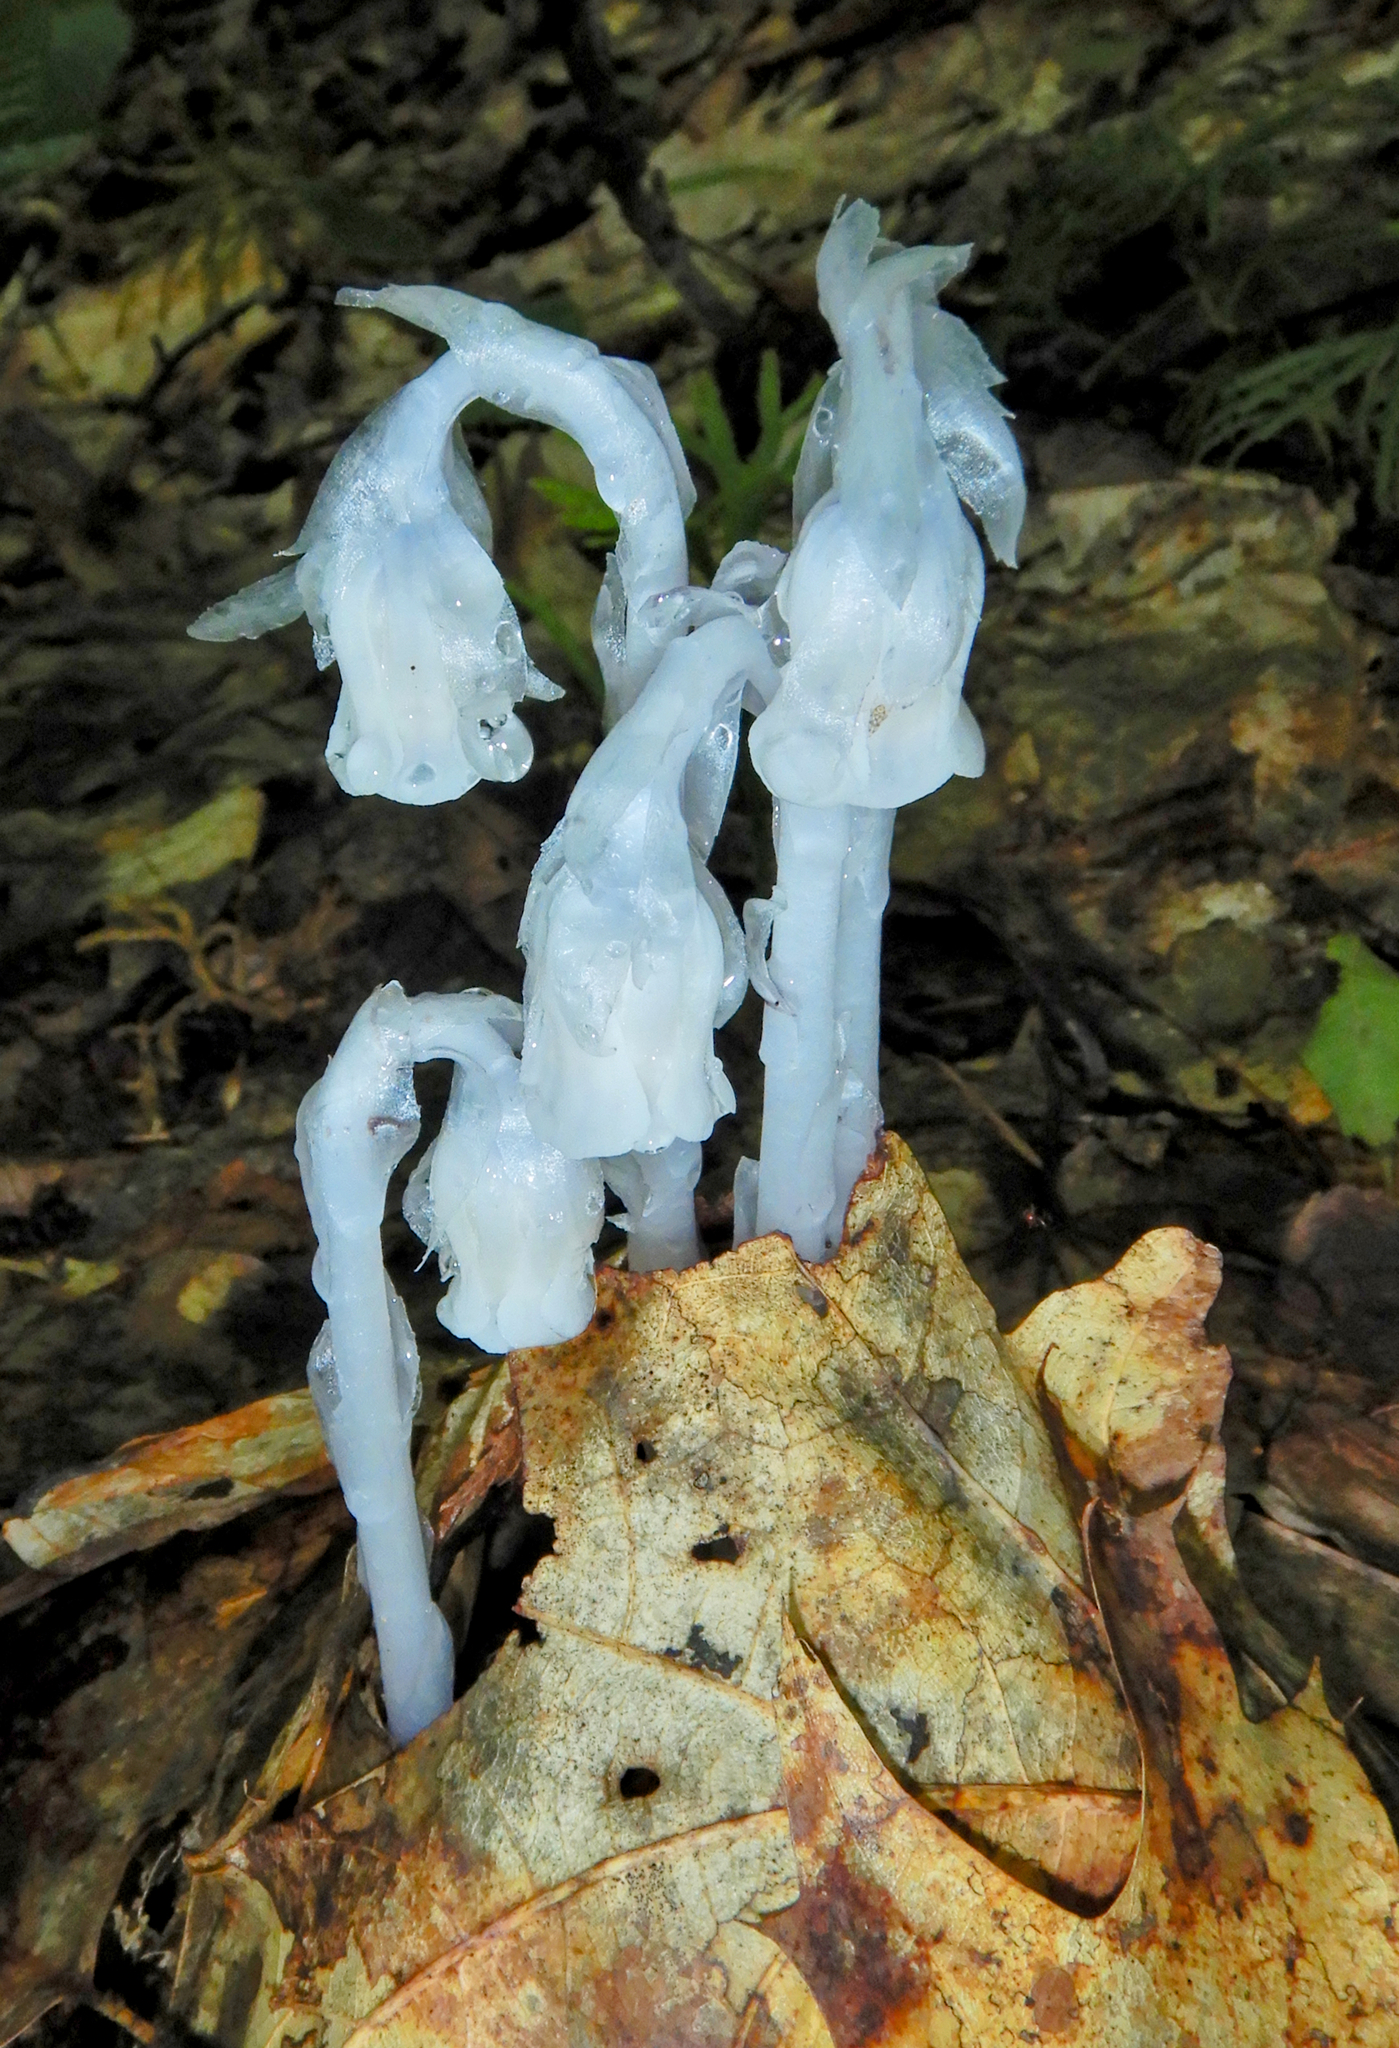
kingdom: Plantae
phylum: Tracheophyta
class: Magnoliopsida
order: Ericales
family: Ericaceae
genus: Monotropa
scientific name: Monotropa uniflora
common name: Convulsion root
